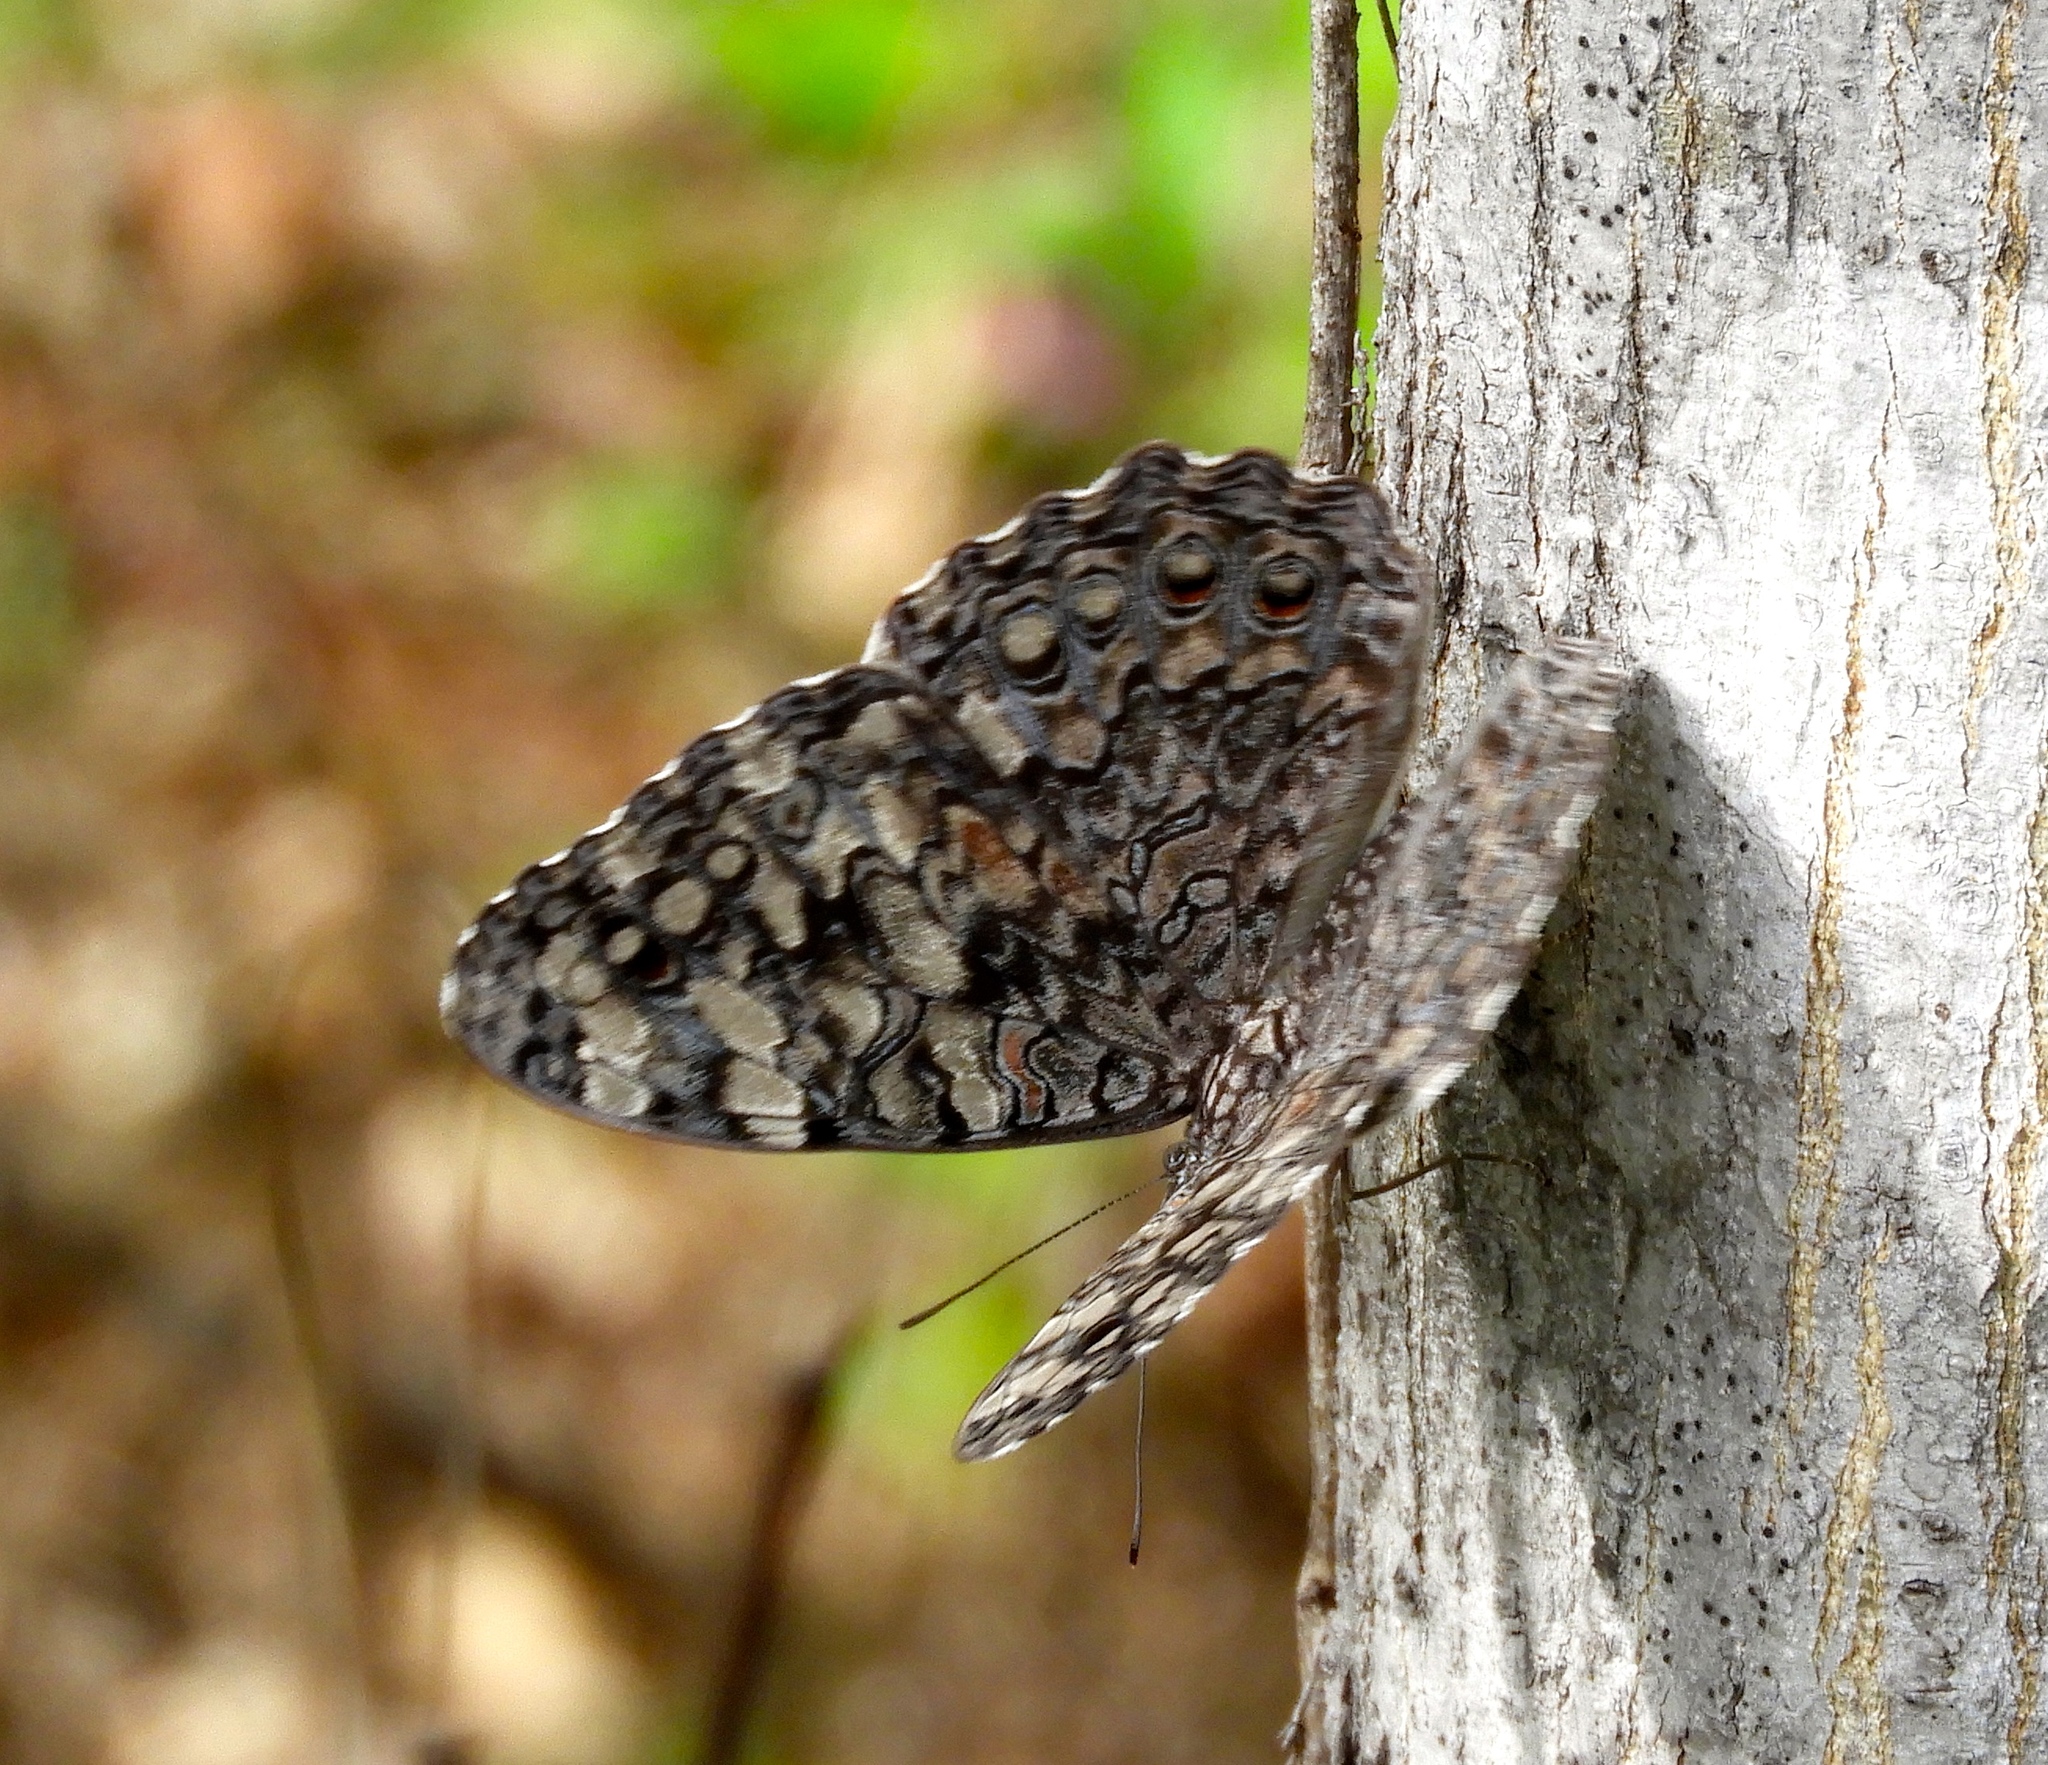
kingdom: Animalia
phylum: Arthropoda
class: Insecta
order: Lepidoptera
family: Nymphalidae
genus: Hamadryas
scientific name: Hamadryas
